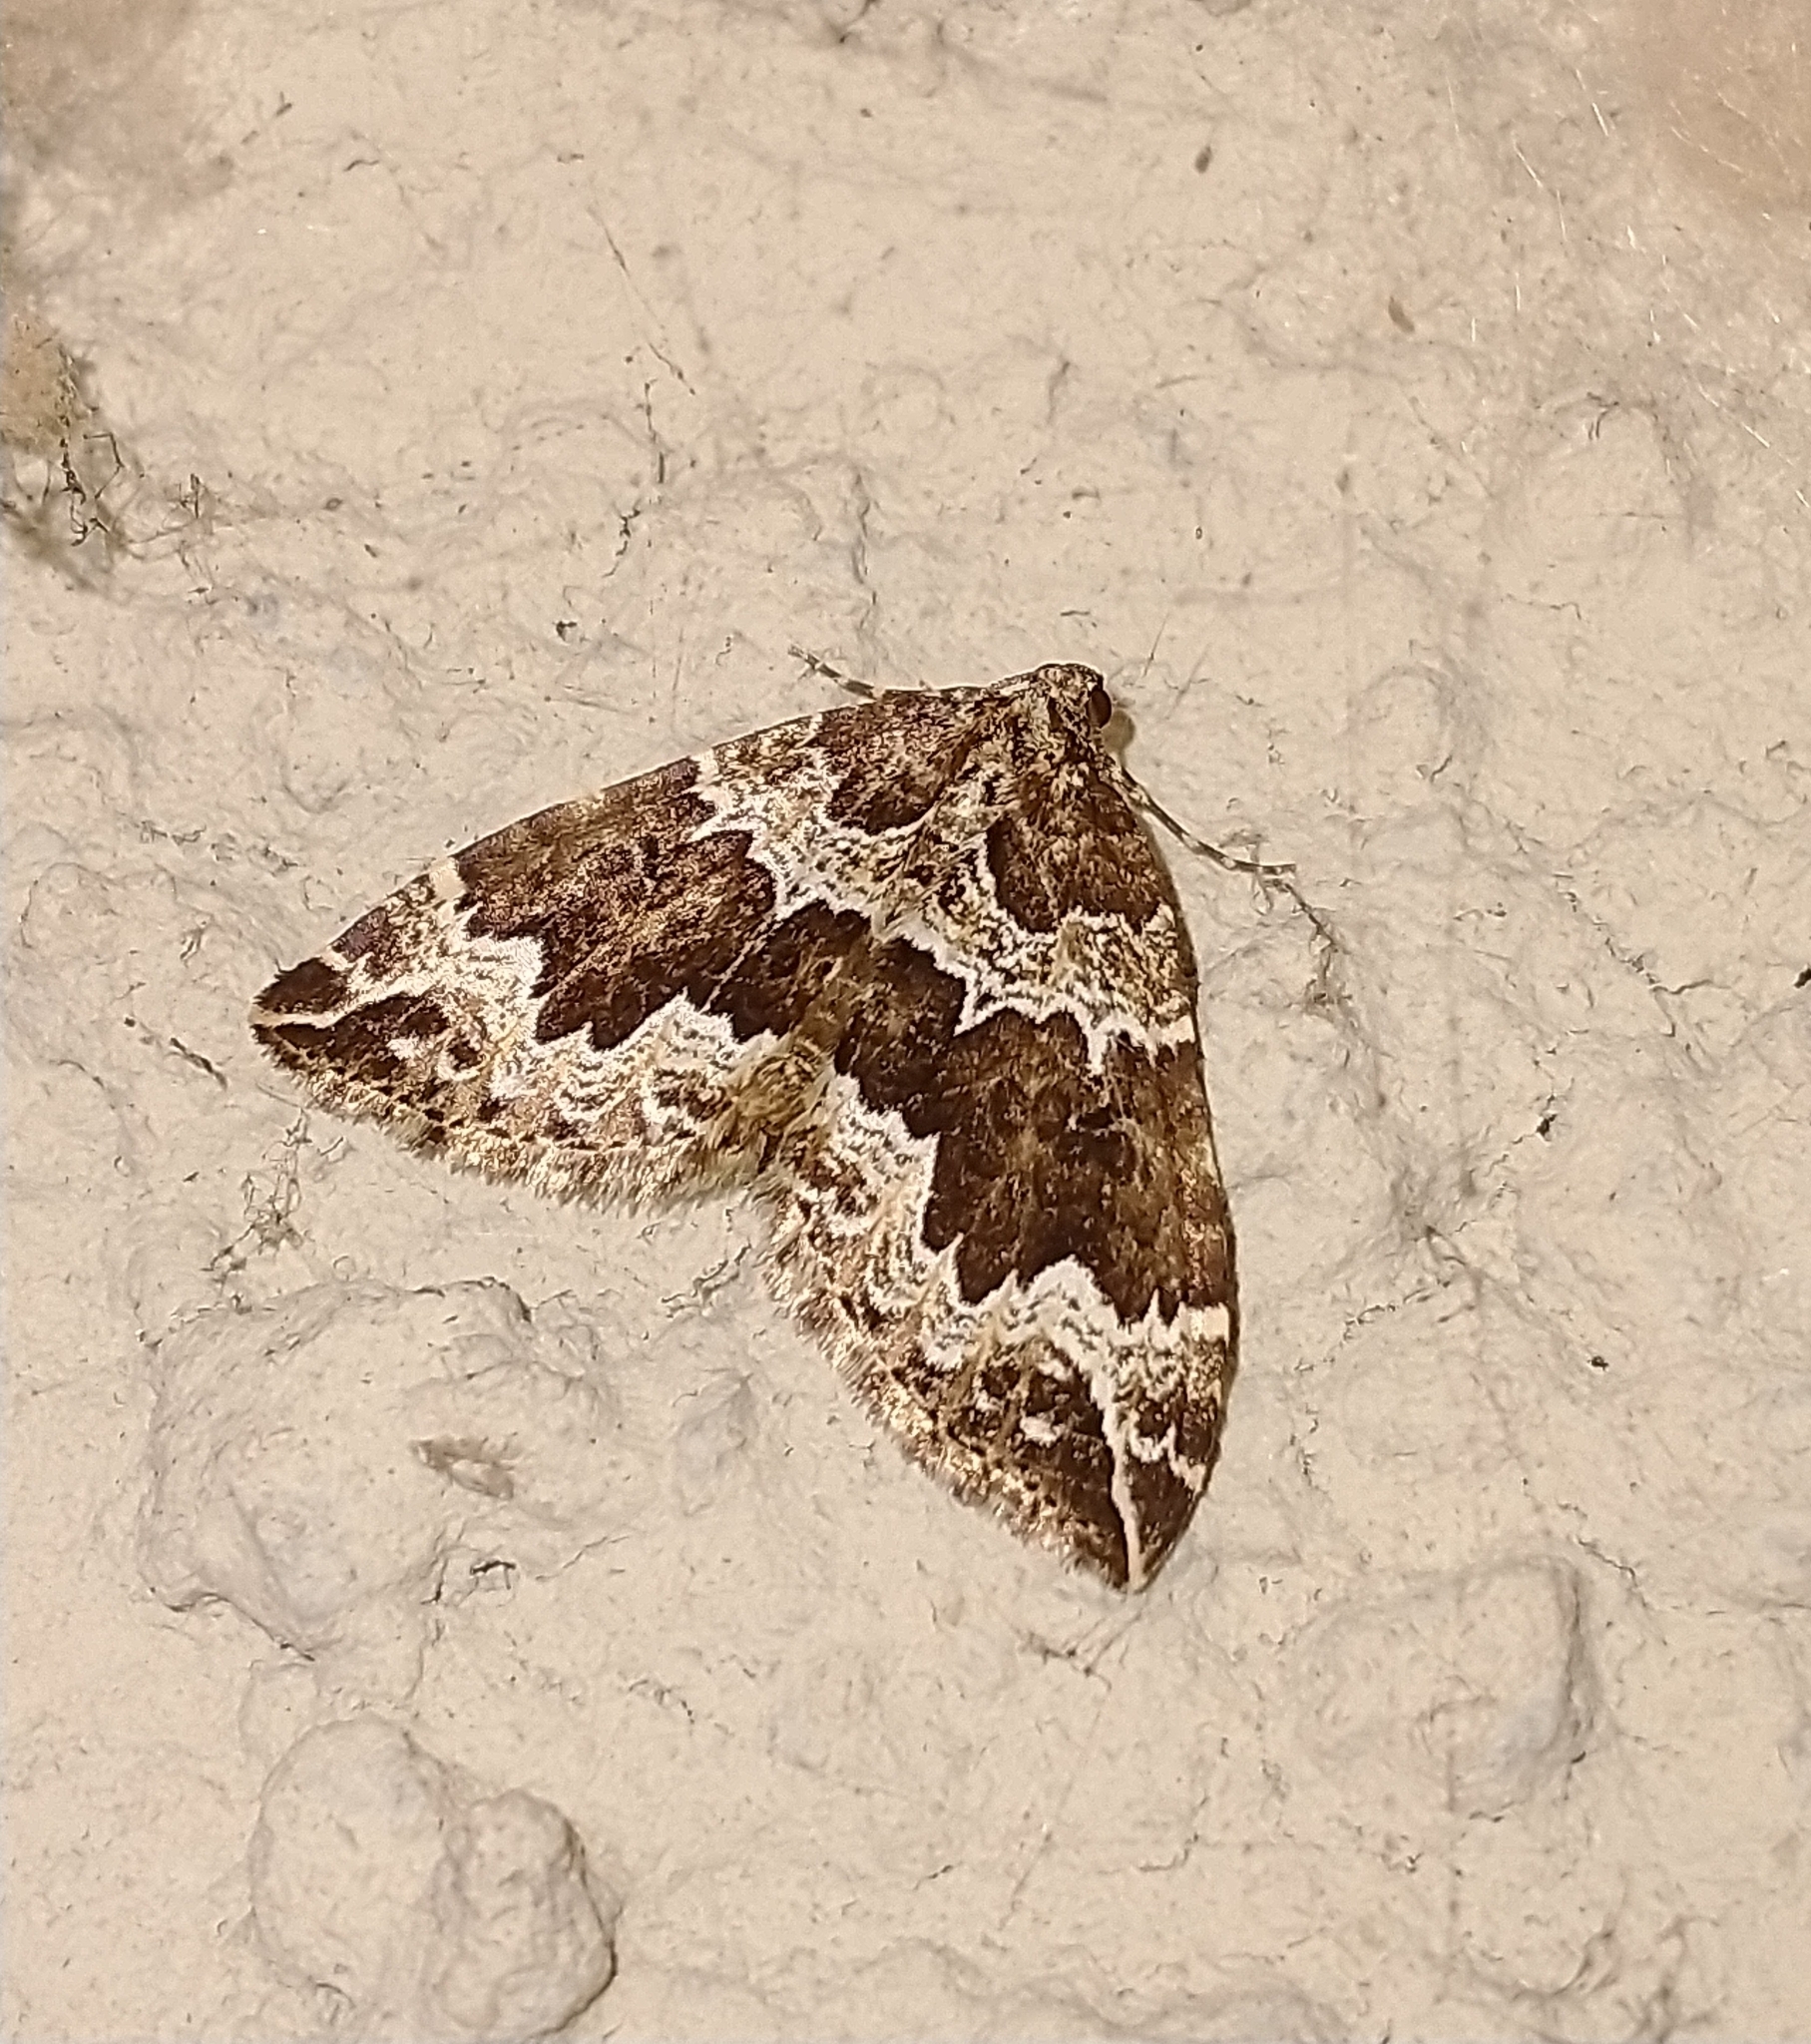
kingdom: Animalia
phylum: Arthropoda
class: Insecta
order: Lepidoptera
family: Geometridae
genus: Lampropteryx
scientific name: Lampropteryx suffumata
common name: Water carpet
